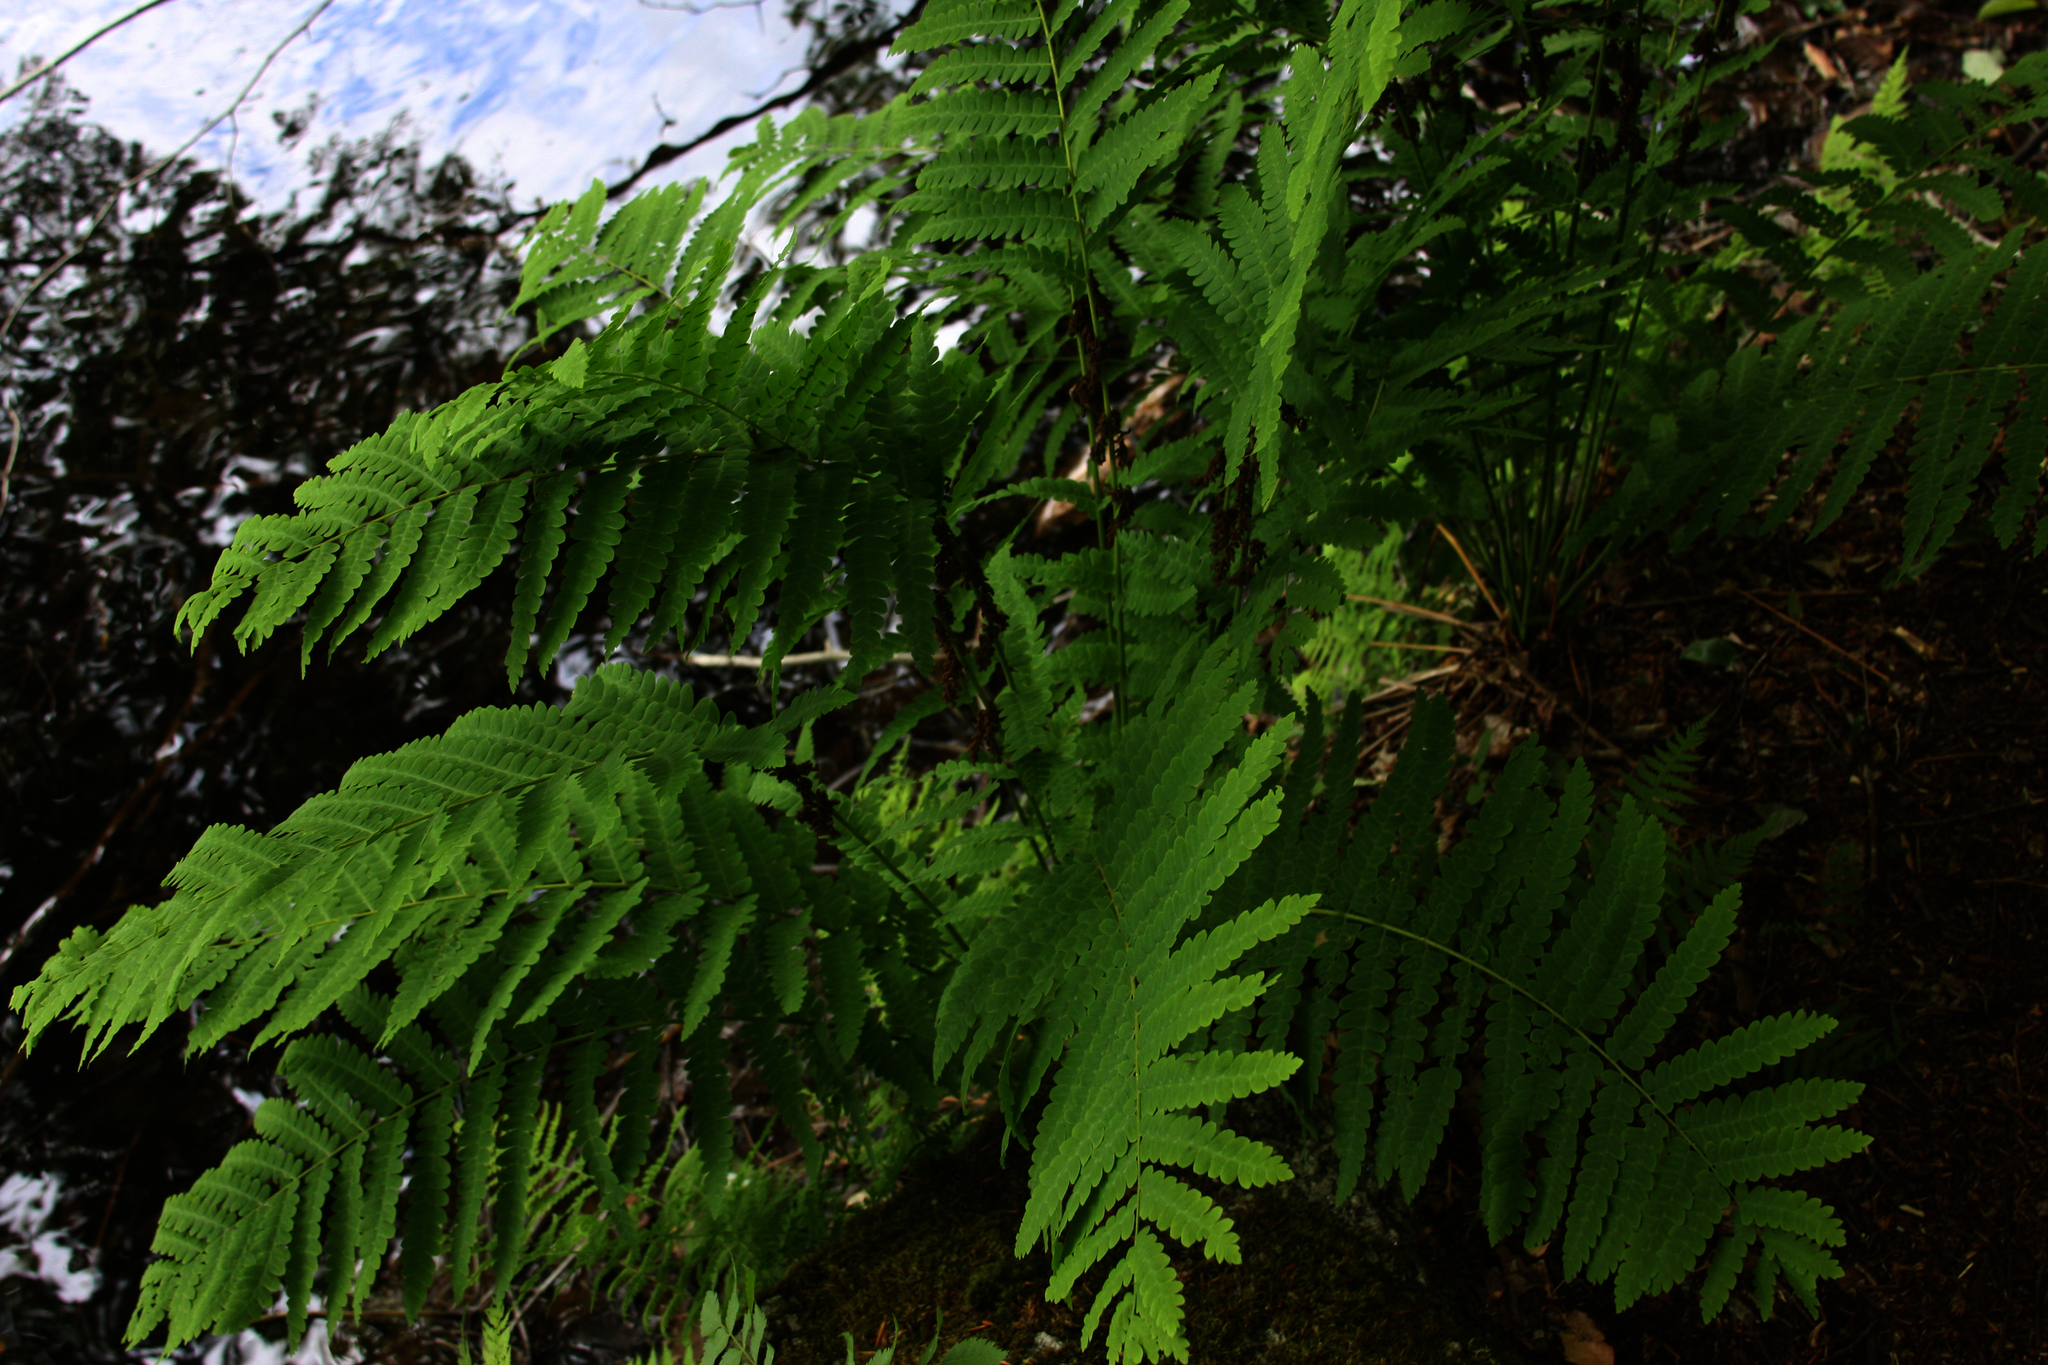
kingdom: Plantae
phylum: Tracheophyta
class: Polypodiopsida
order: Osmundales
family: Osmundaceae
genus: Claytosmunda
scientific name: Claytosmunda claytoniana
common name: Clayton's fern
